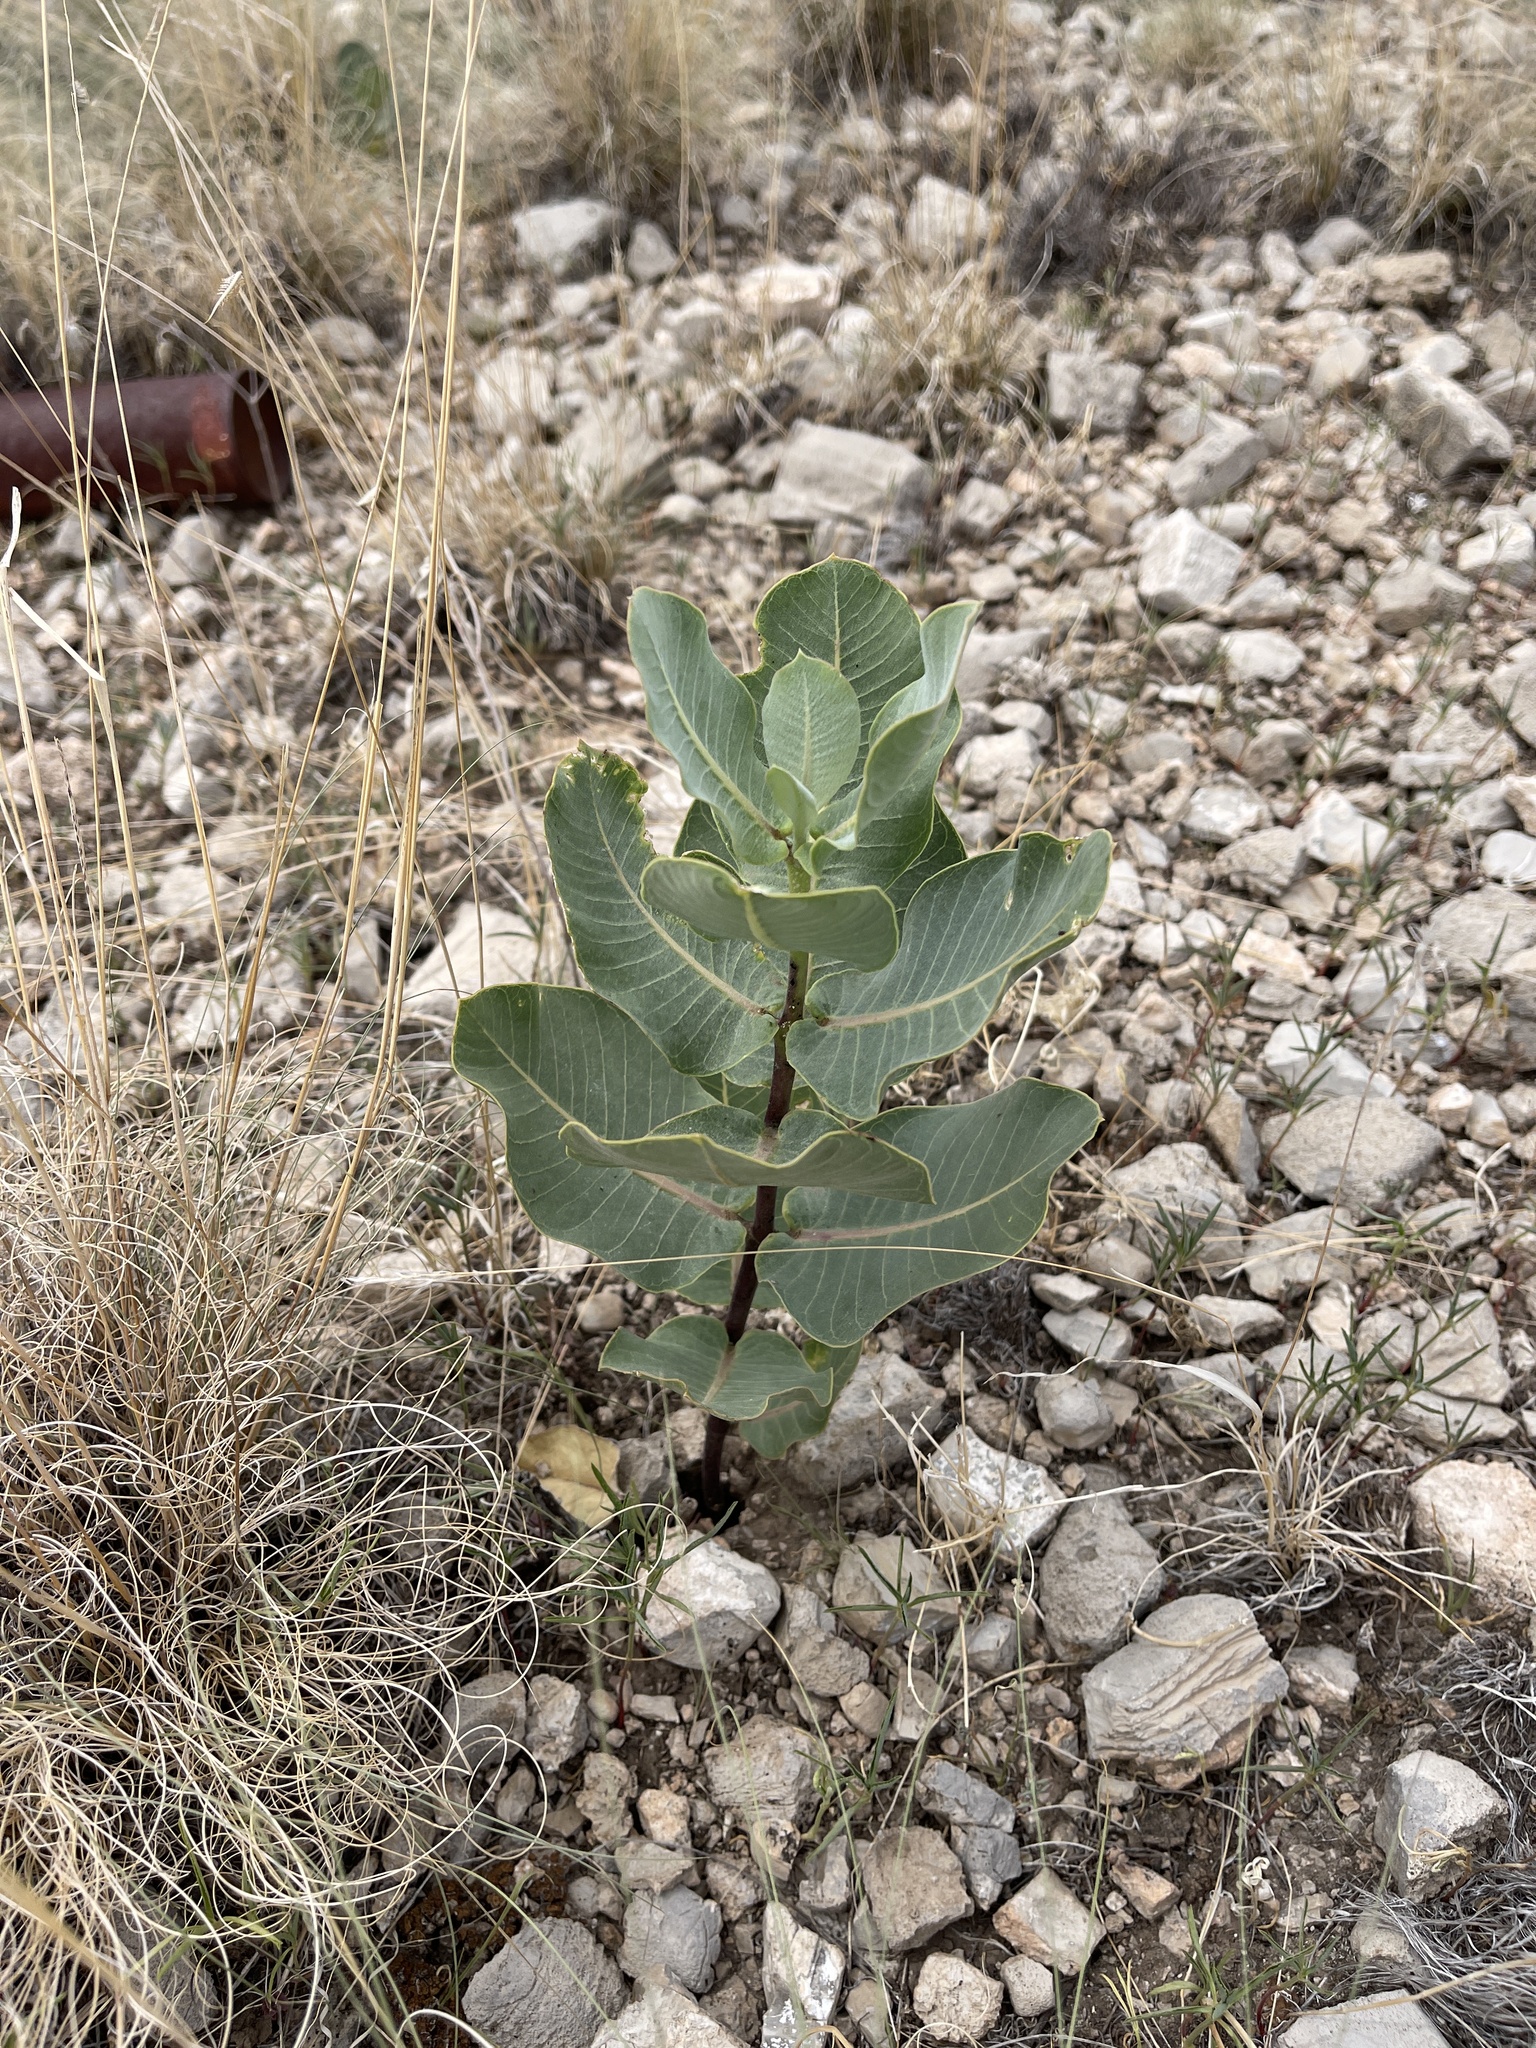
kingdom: Plantae
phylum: Tracheophyta
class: Magnoliopsida
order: Gentianales
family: Apocynaceae
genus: Asclepias
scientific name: Asclepias latifolia
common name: Broadleaf milkweed
